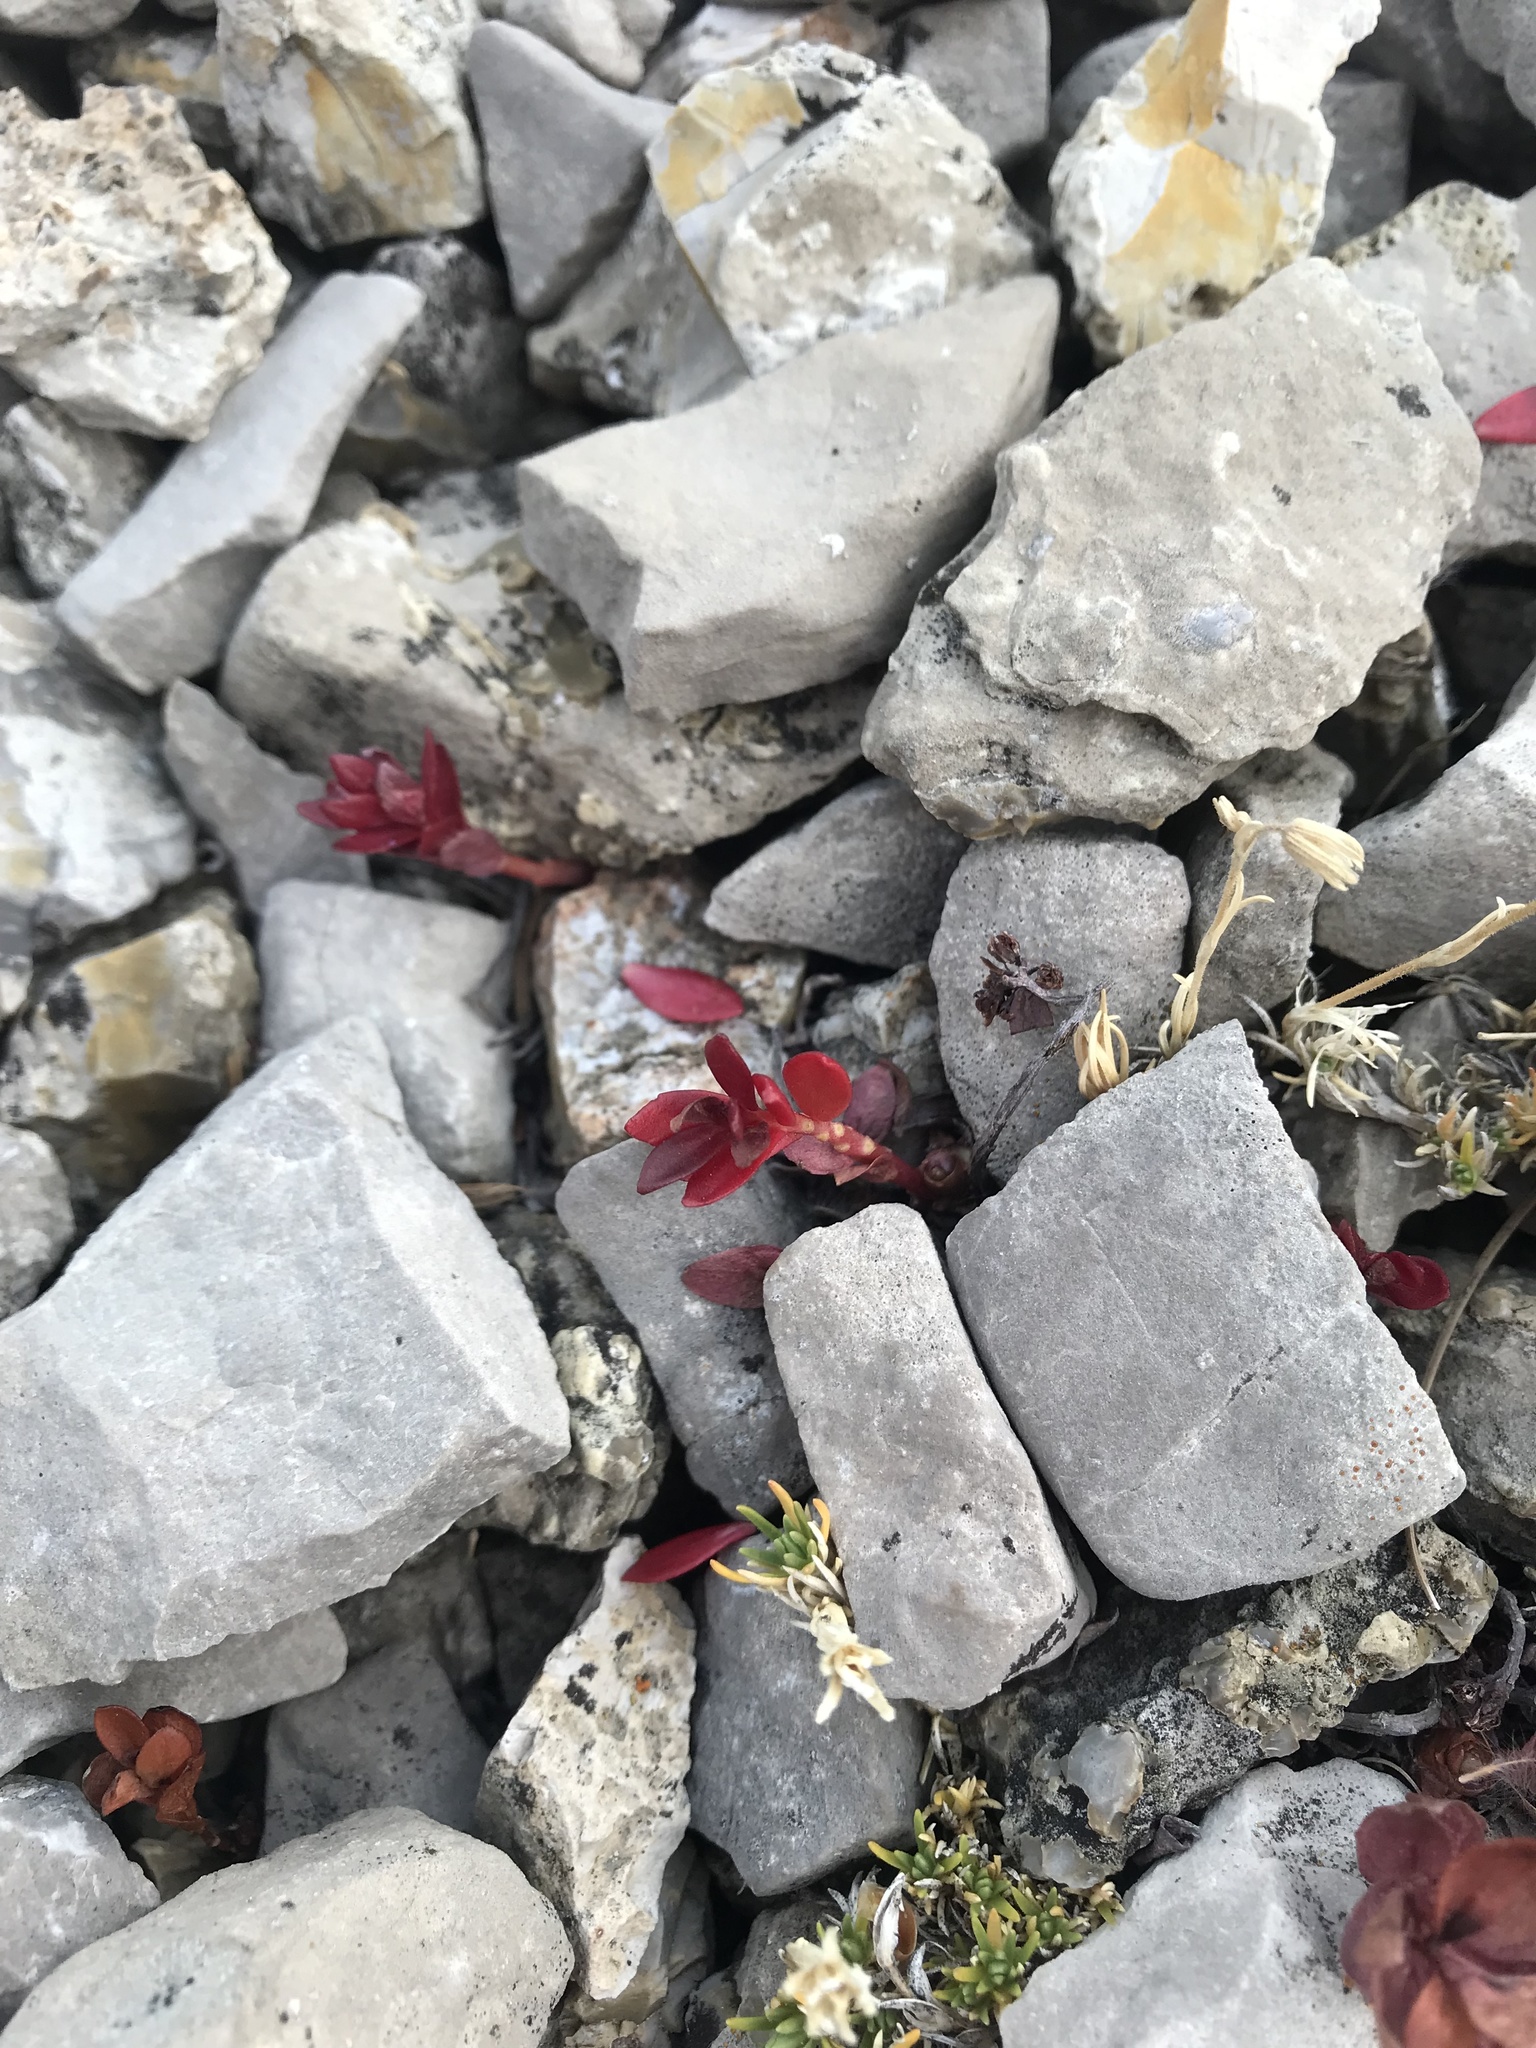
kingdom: Plantae
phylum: Tracheophyta
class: Magnoliopsida
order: Saxifragales
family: Crassulaceae
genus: Rhodiola
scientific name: Rhodiola integrifolia
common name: Western roseroot
